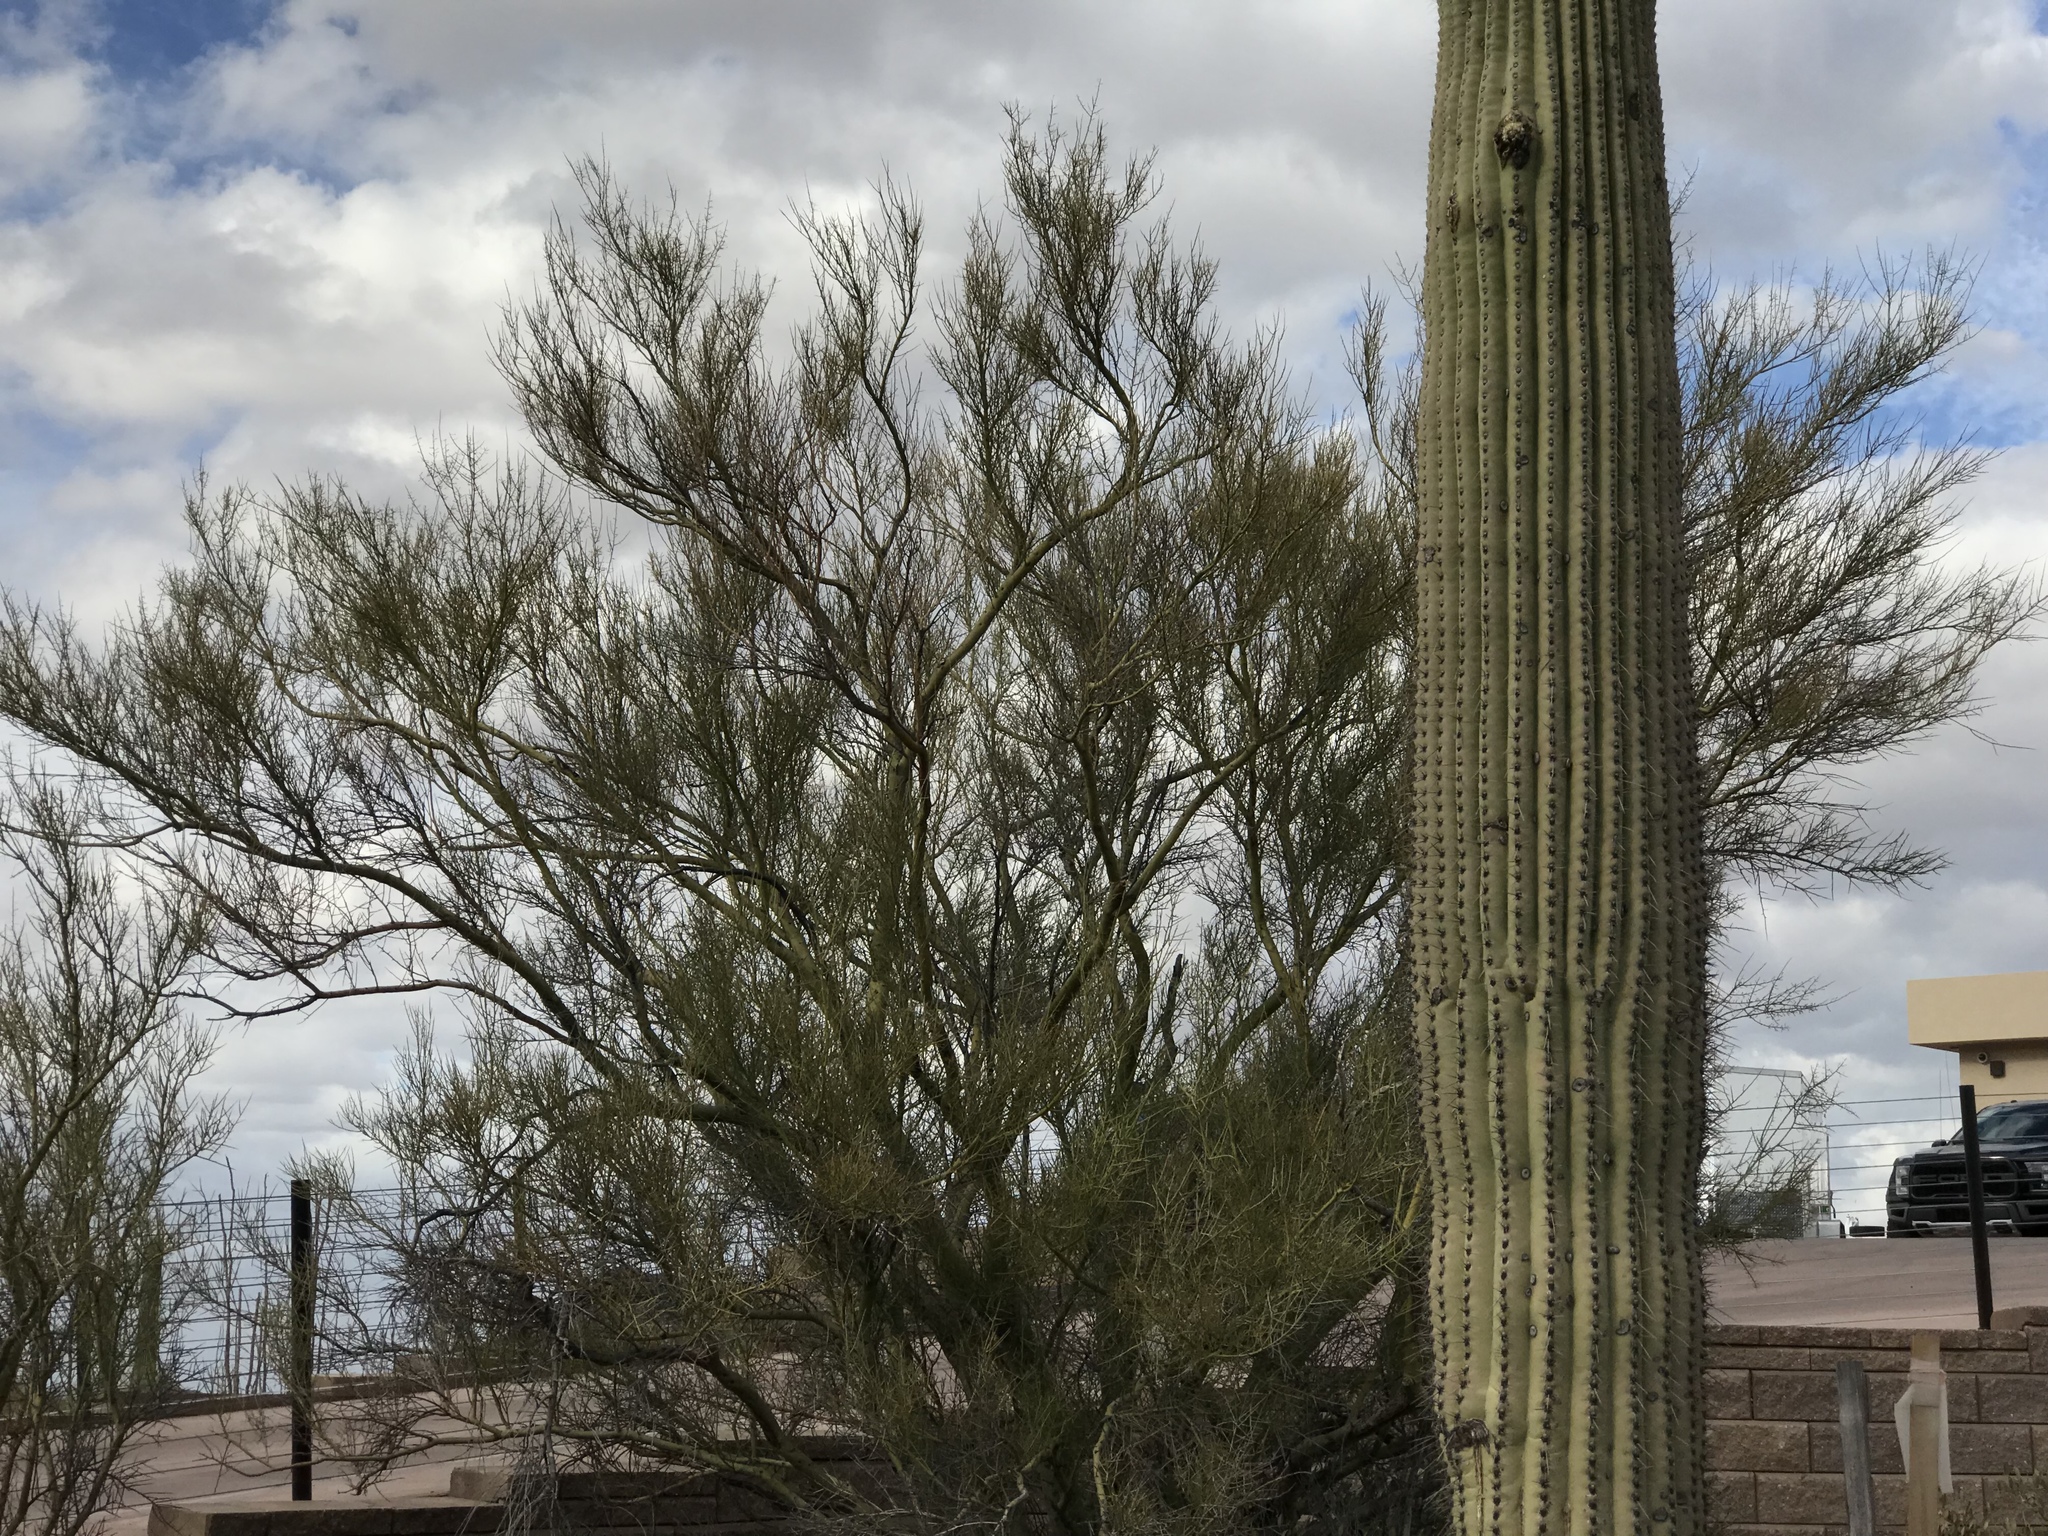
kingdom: Plantae
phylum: Tracheophyta
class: Magnoliopsida
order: Fabales
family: Fabaceae
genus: Parkinsonia
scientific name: Parkinsonia microphylla
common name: Yellow paloverde
